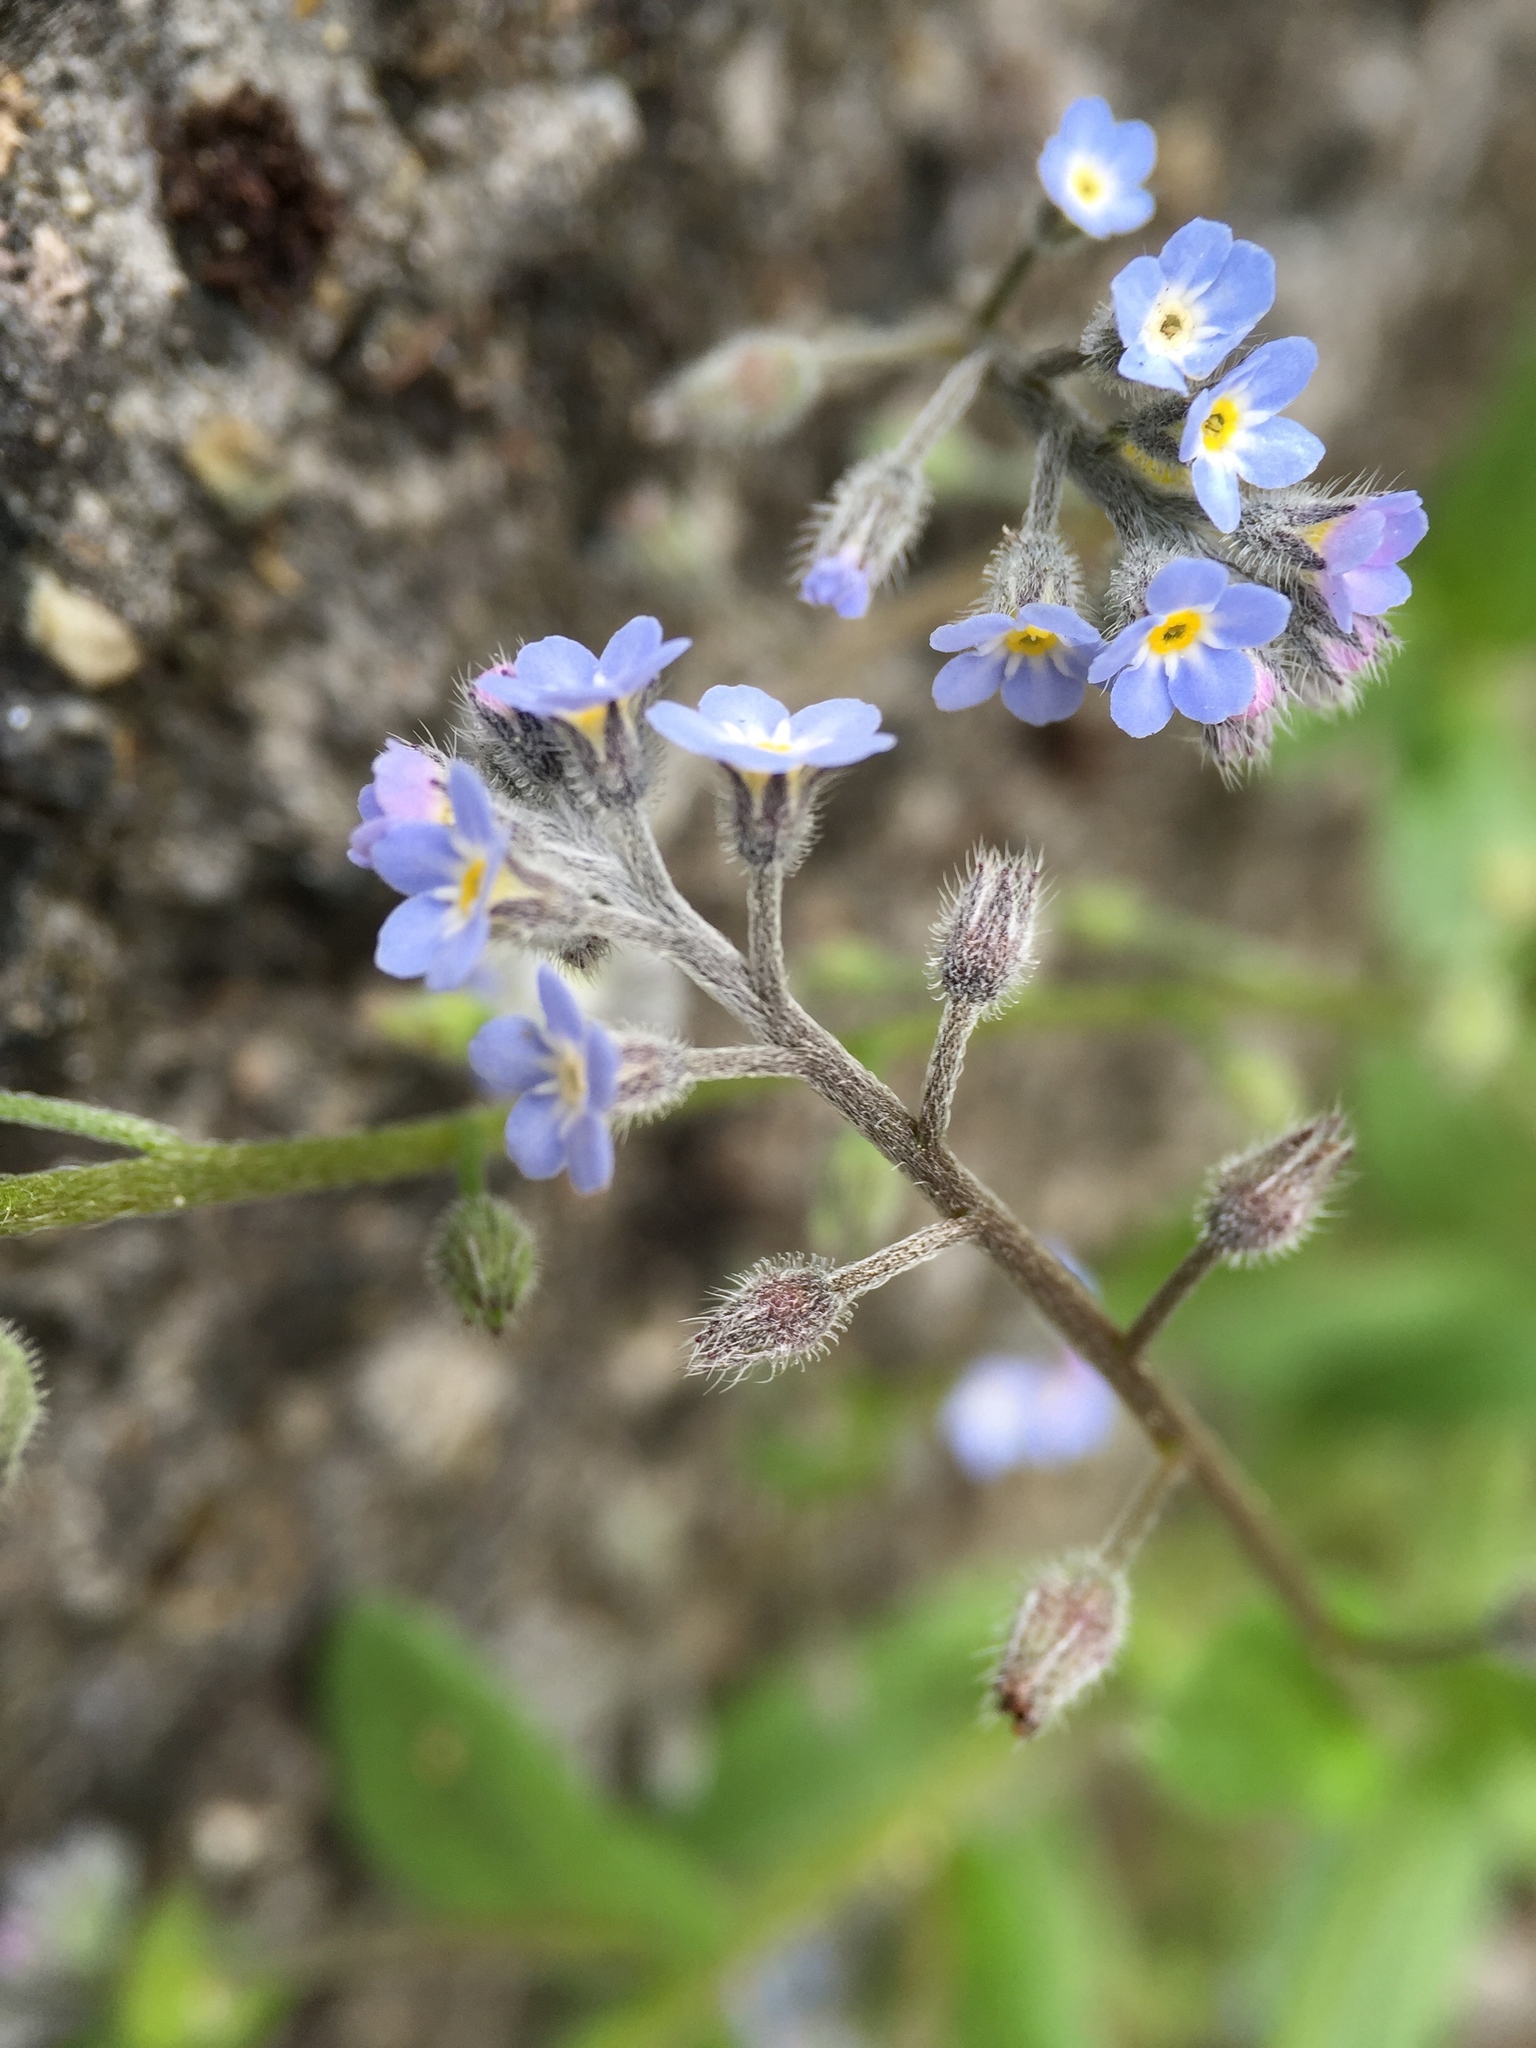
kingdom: Plantae
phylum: Tracheophyta
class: Magnoliopsida
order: Boraginales
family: Boraginaceae
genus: Myosotis
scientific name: Myosotis arvensis
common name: Field forget-me-not
